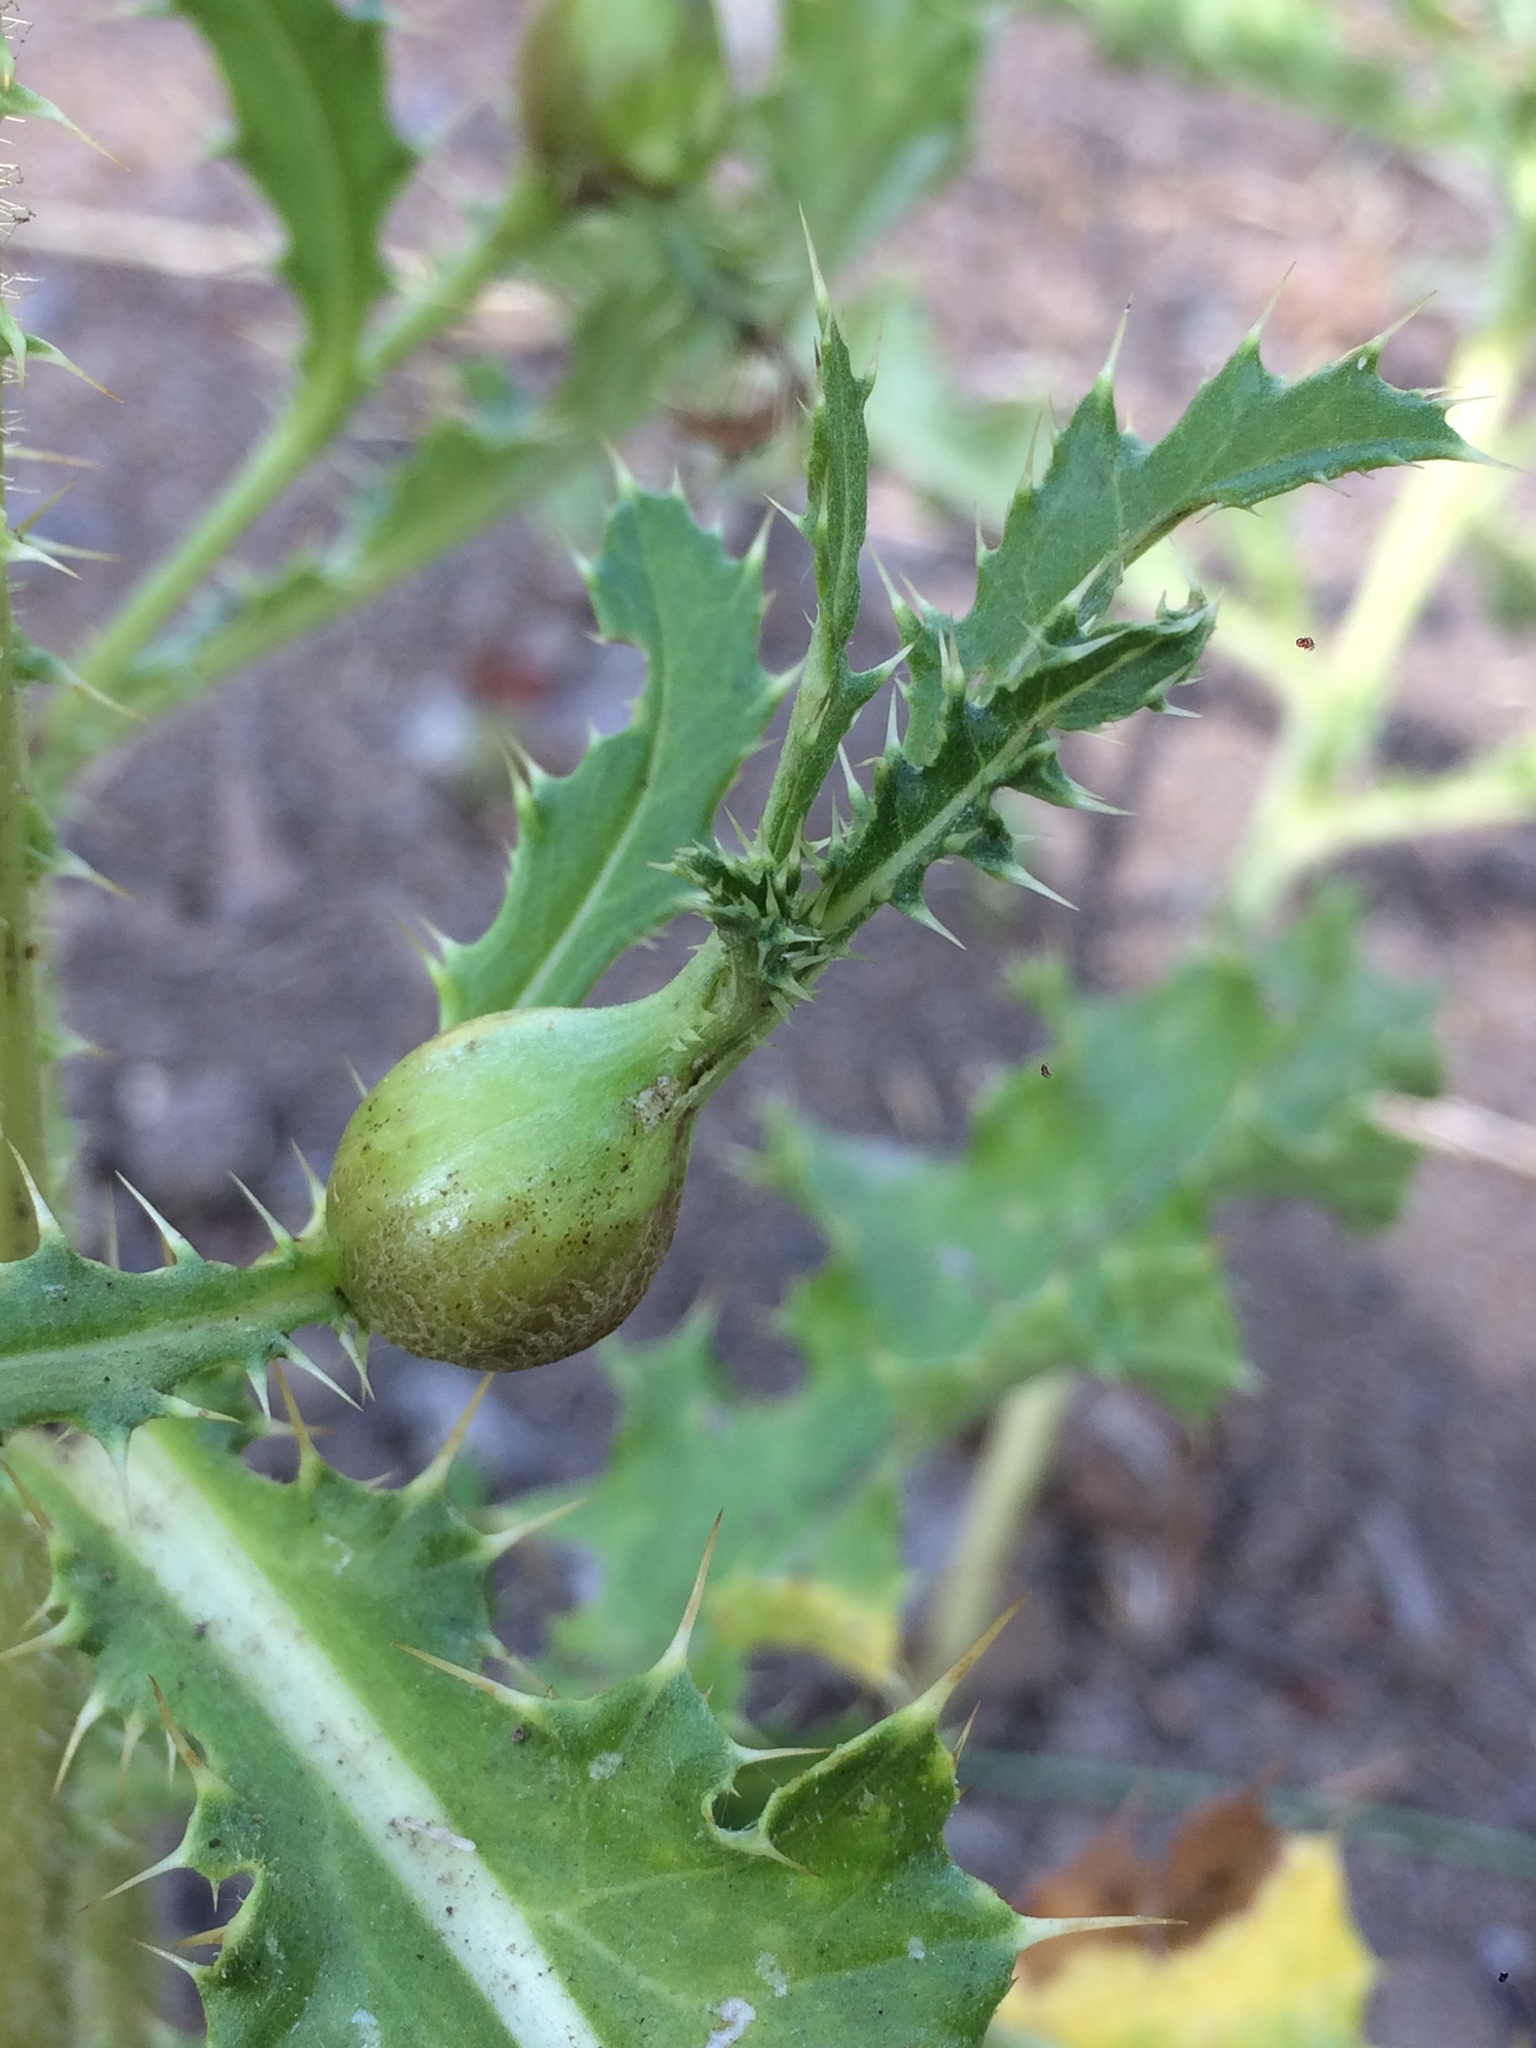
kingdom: Animalia
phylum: Arthropoda
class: Insecta
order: Diptera
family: Tephritidae
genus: Urophora
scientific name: Urophora cardui
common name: Fruit fly
